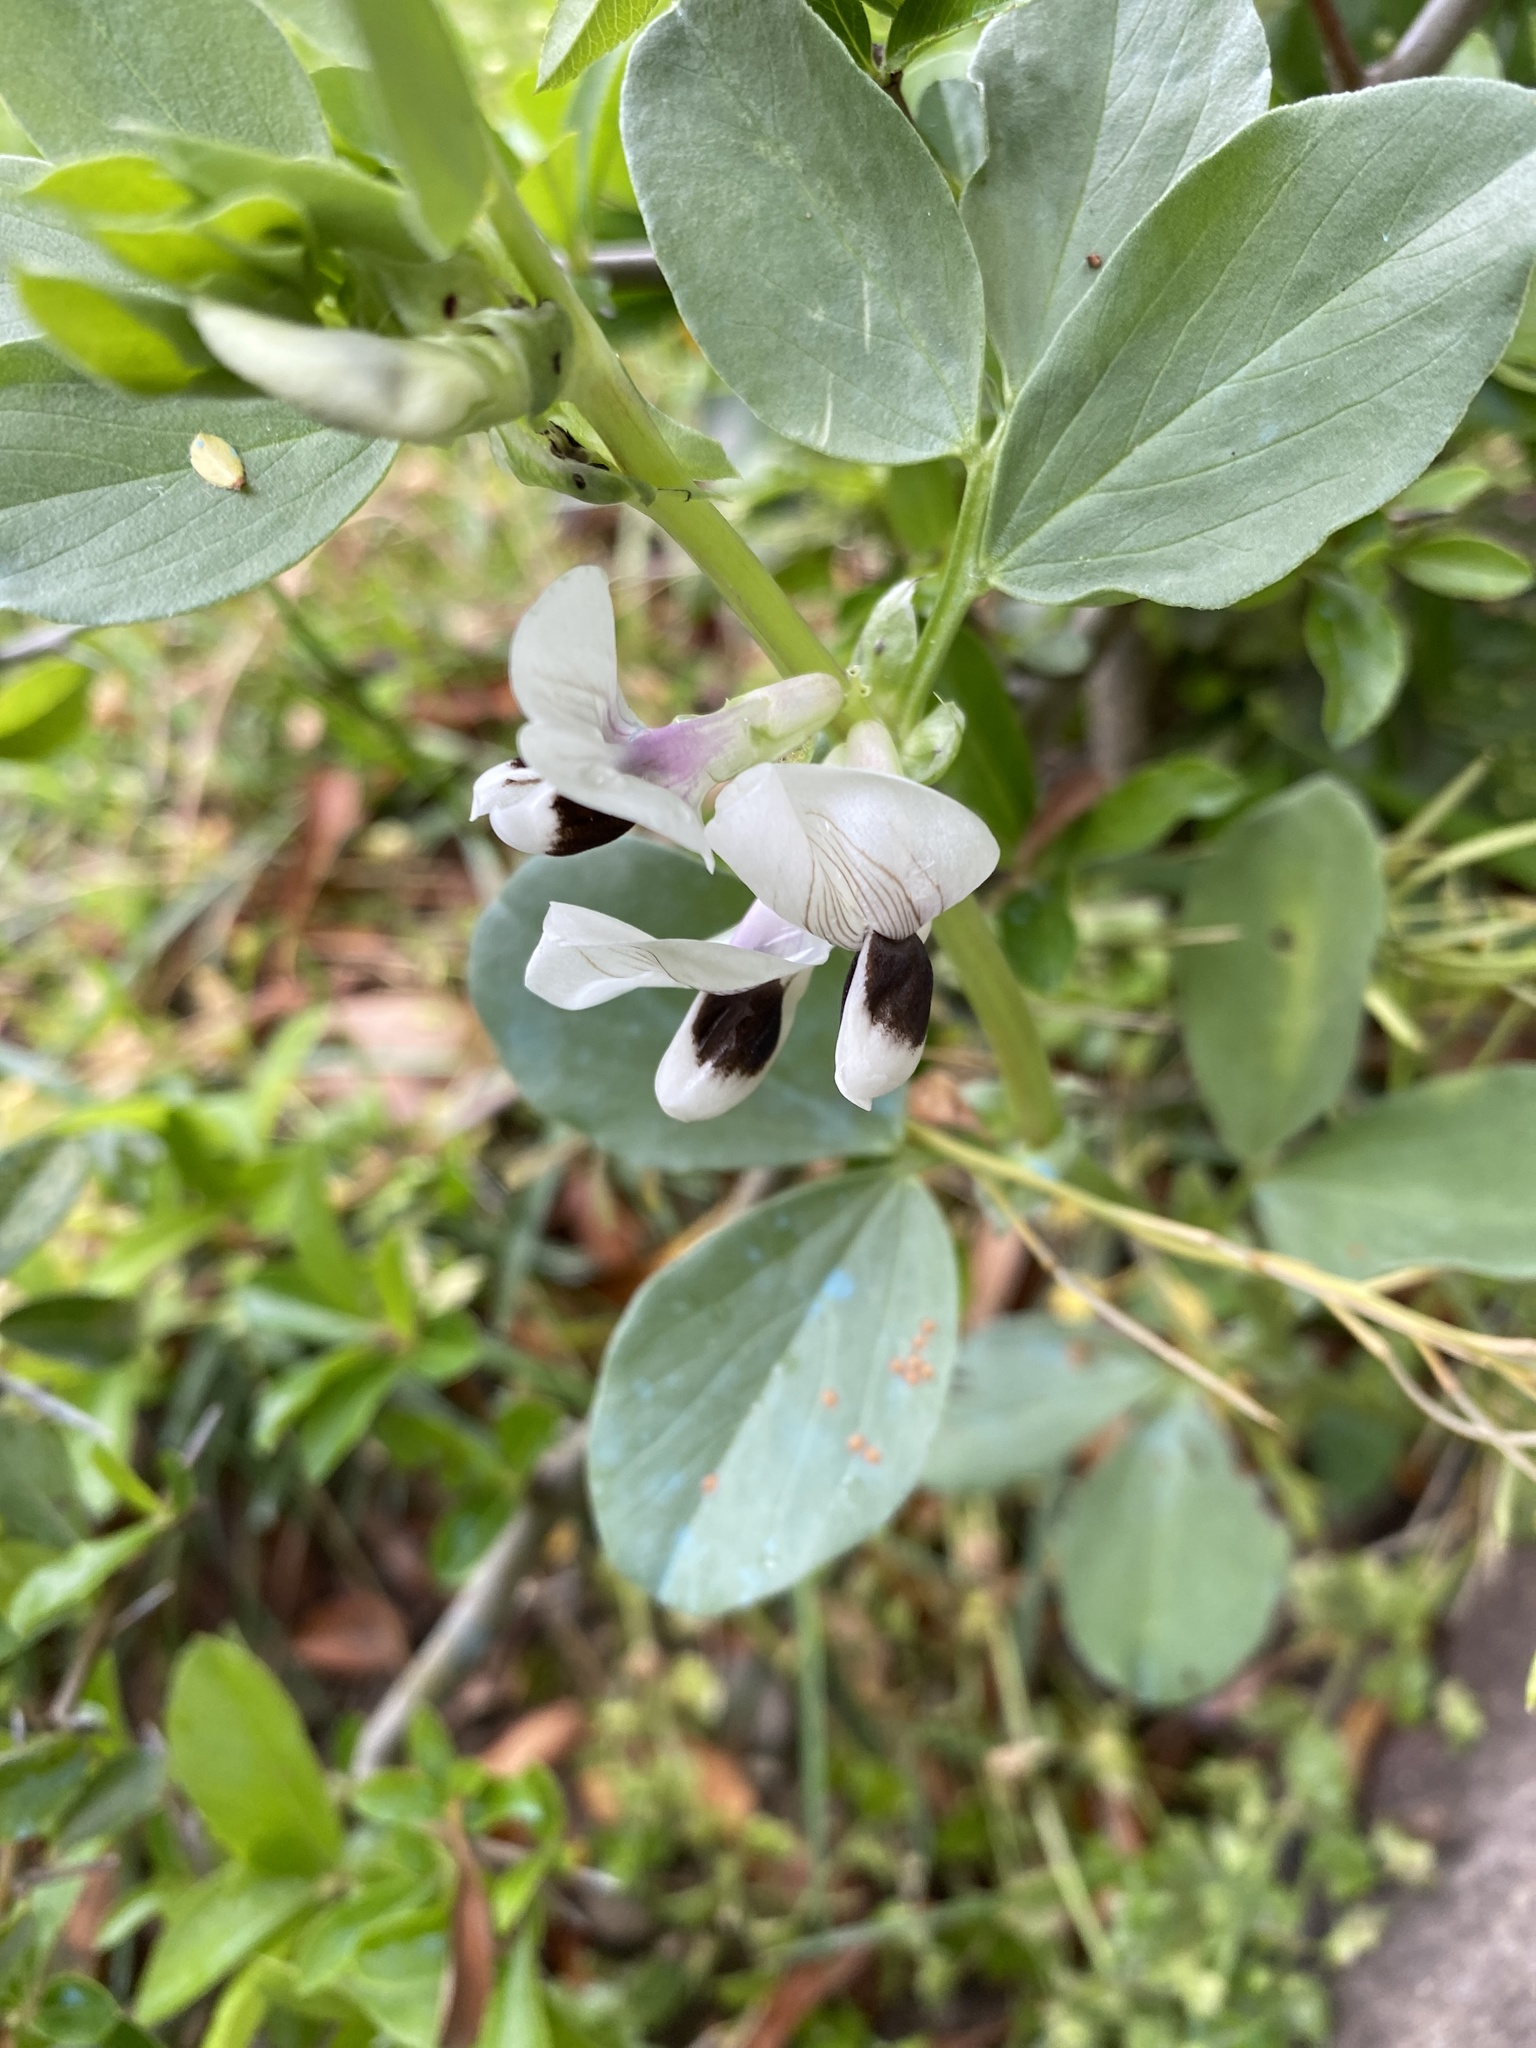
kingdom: Plantae
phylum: Tracheophyta
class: Magnoliopsida
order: Fabales
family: Fabaceae
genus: Vicia
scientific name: Vicia faba
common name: Broad bean
